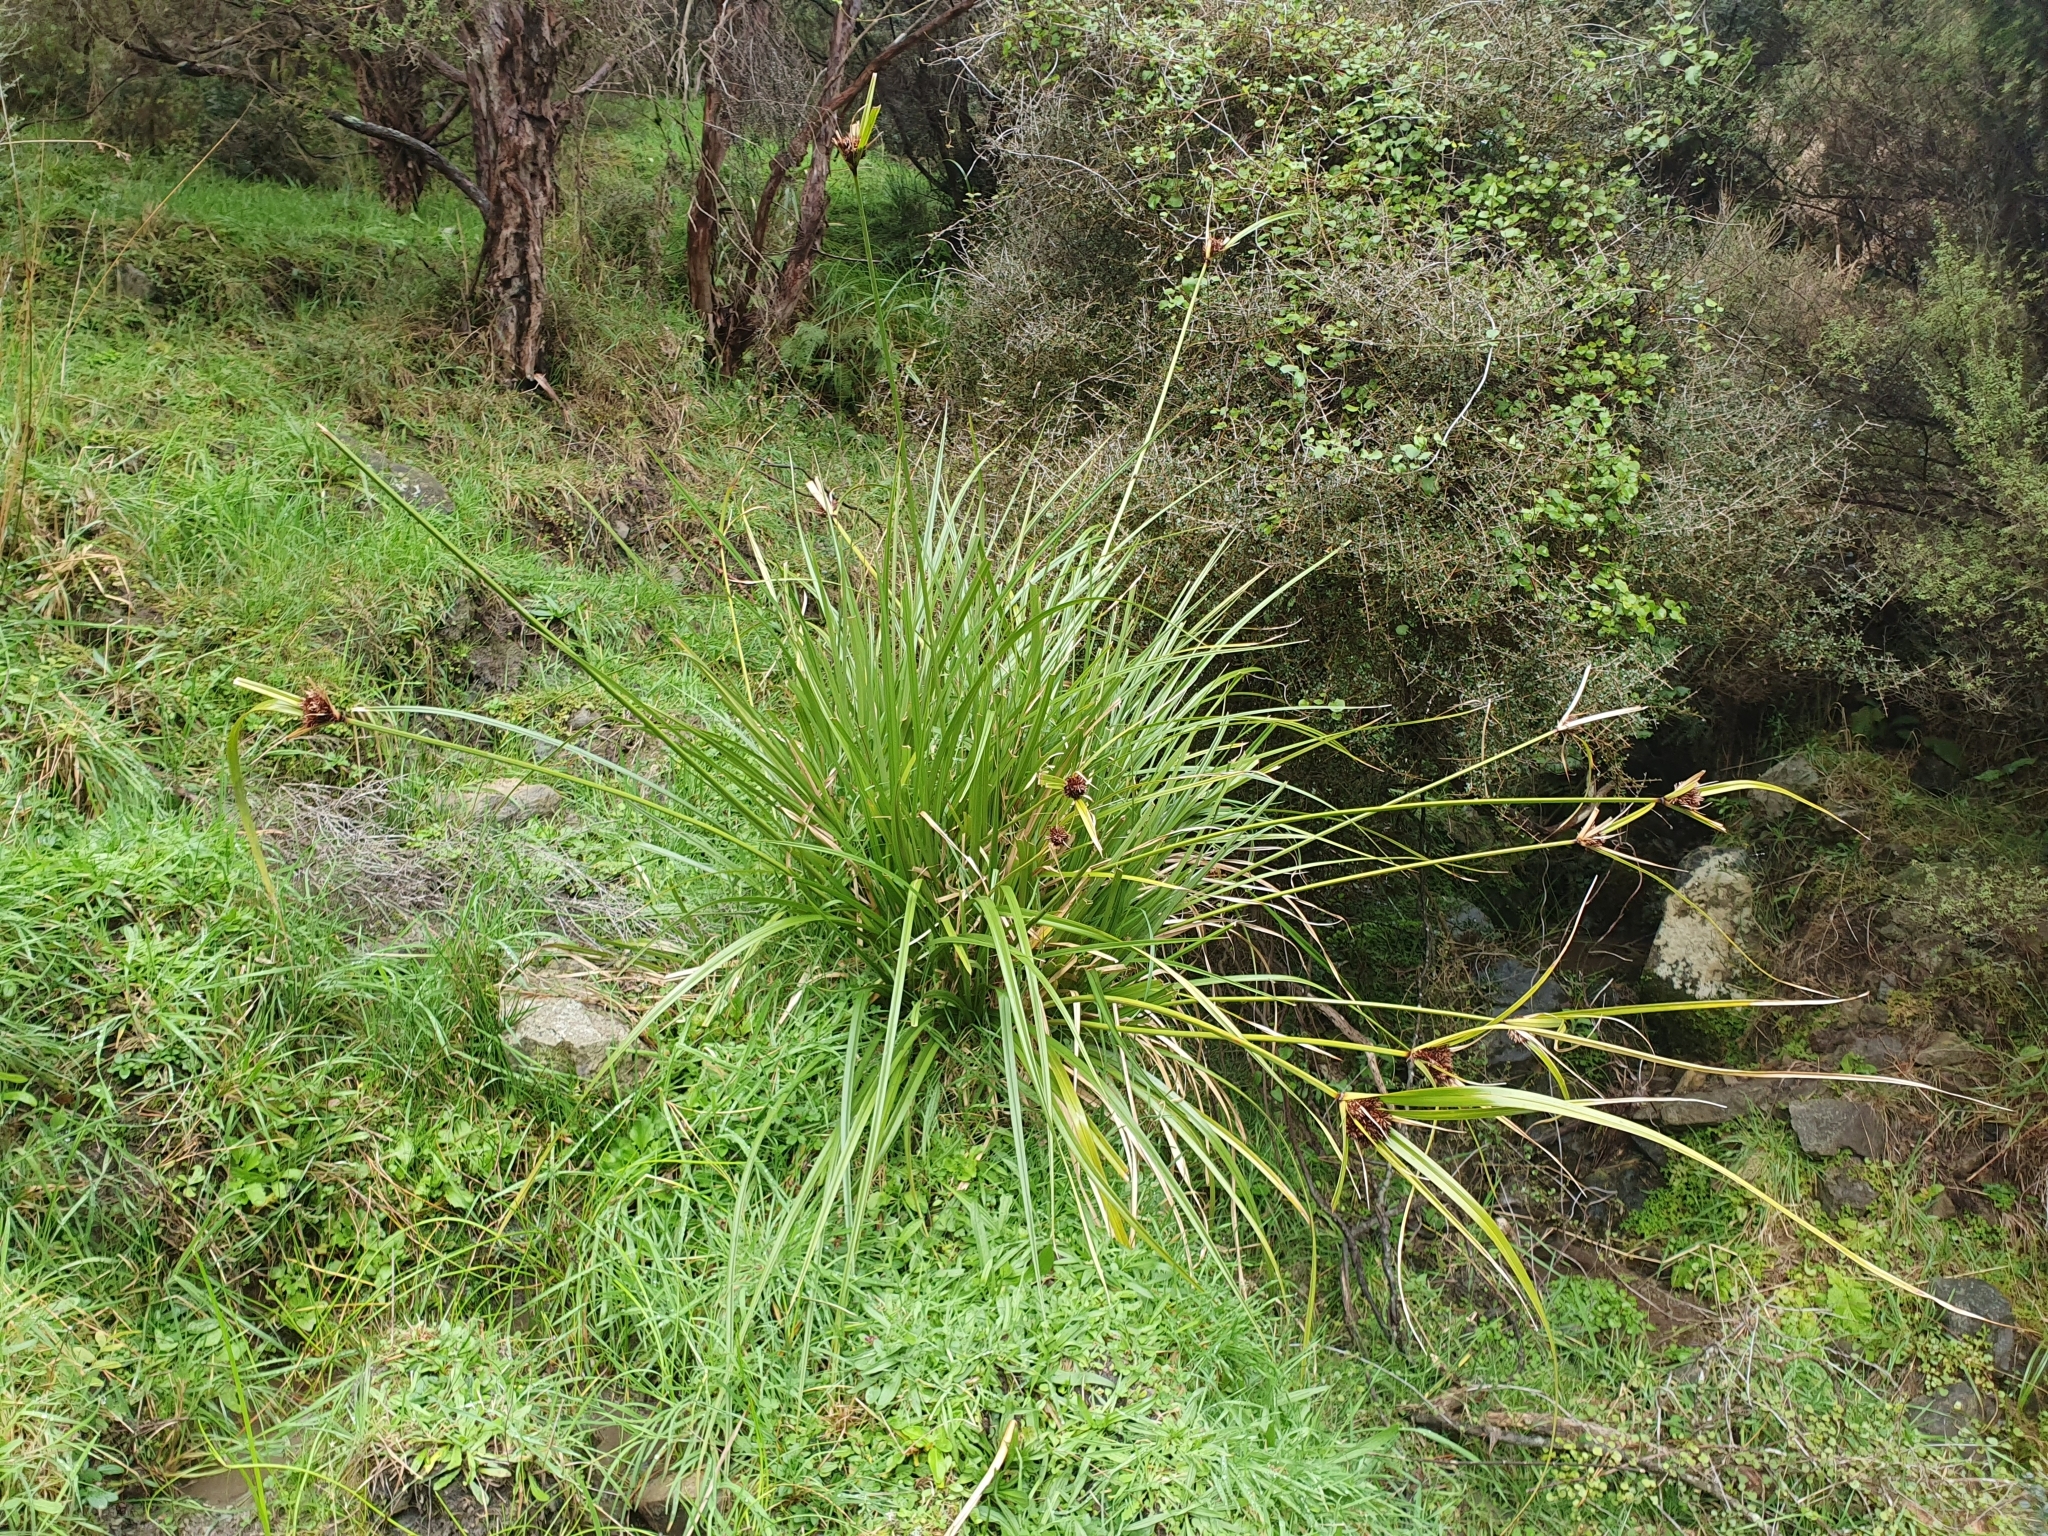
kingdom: Plantae
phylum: Tracheophyta
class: Liliopsida
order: Poales
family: Cyperaceae
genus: Cyperus
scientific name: Cyperus ustulatus
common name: Giant umbrella-sedge
